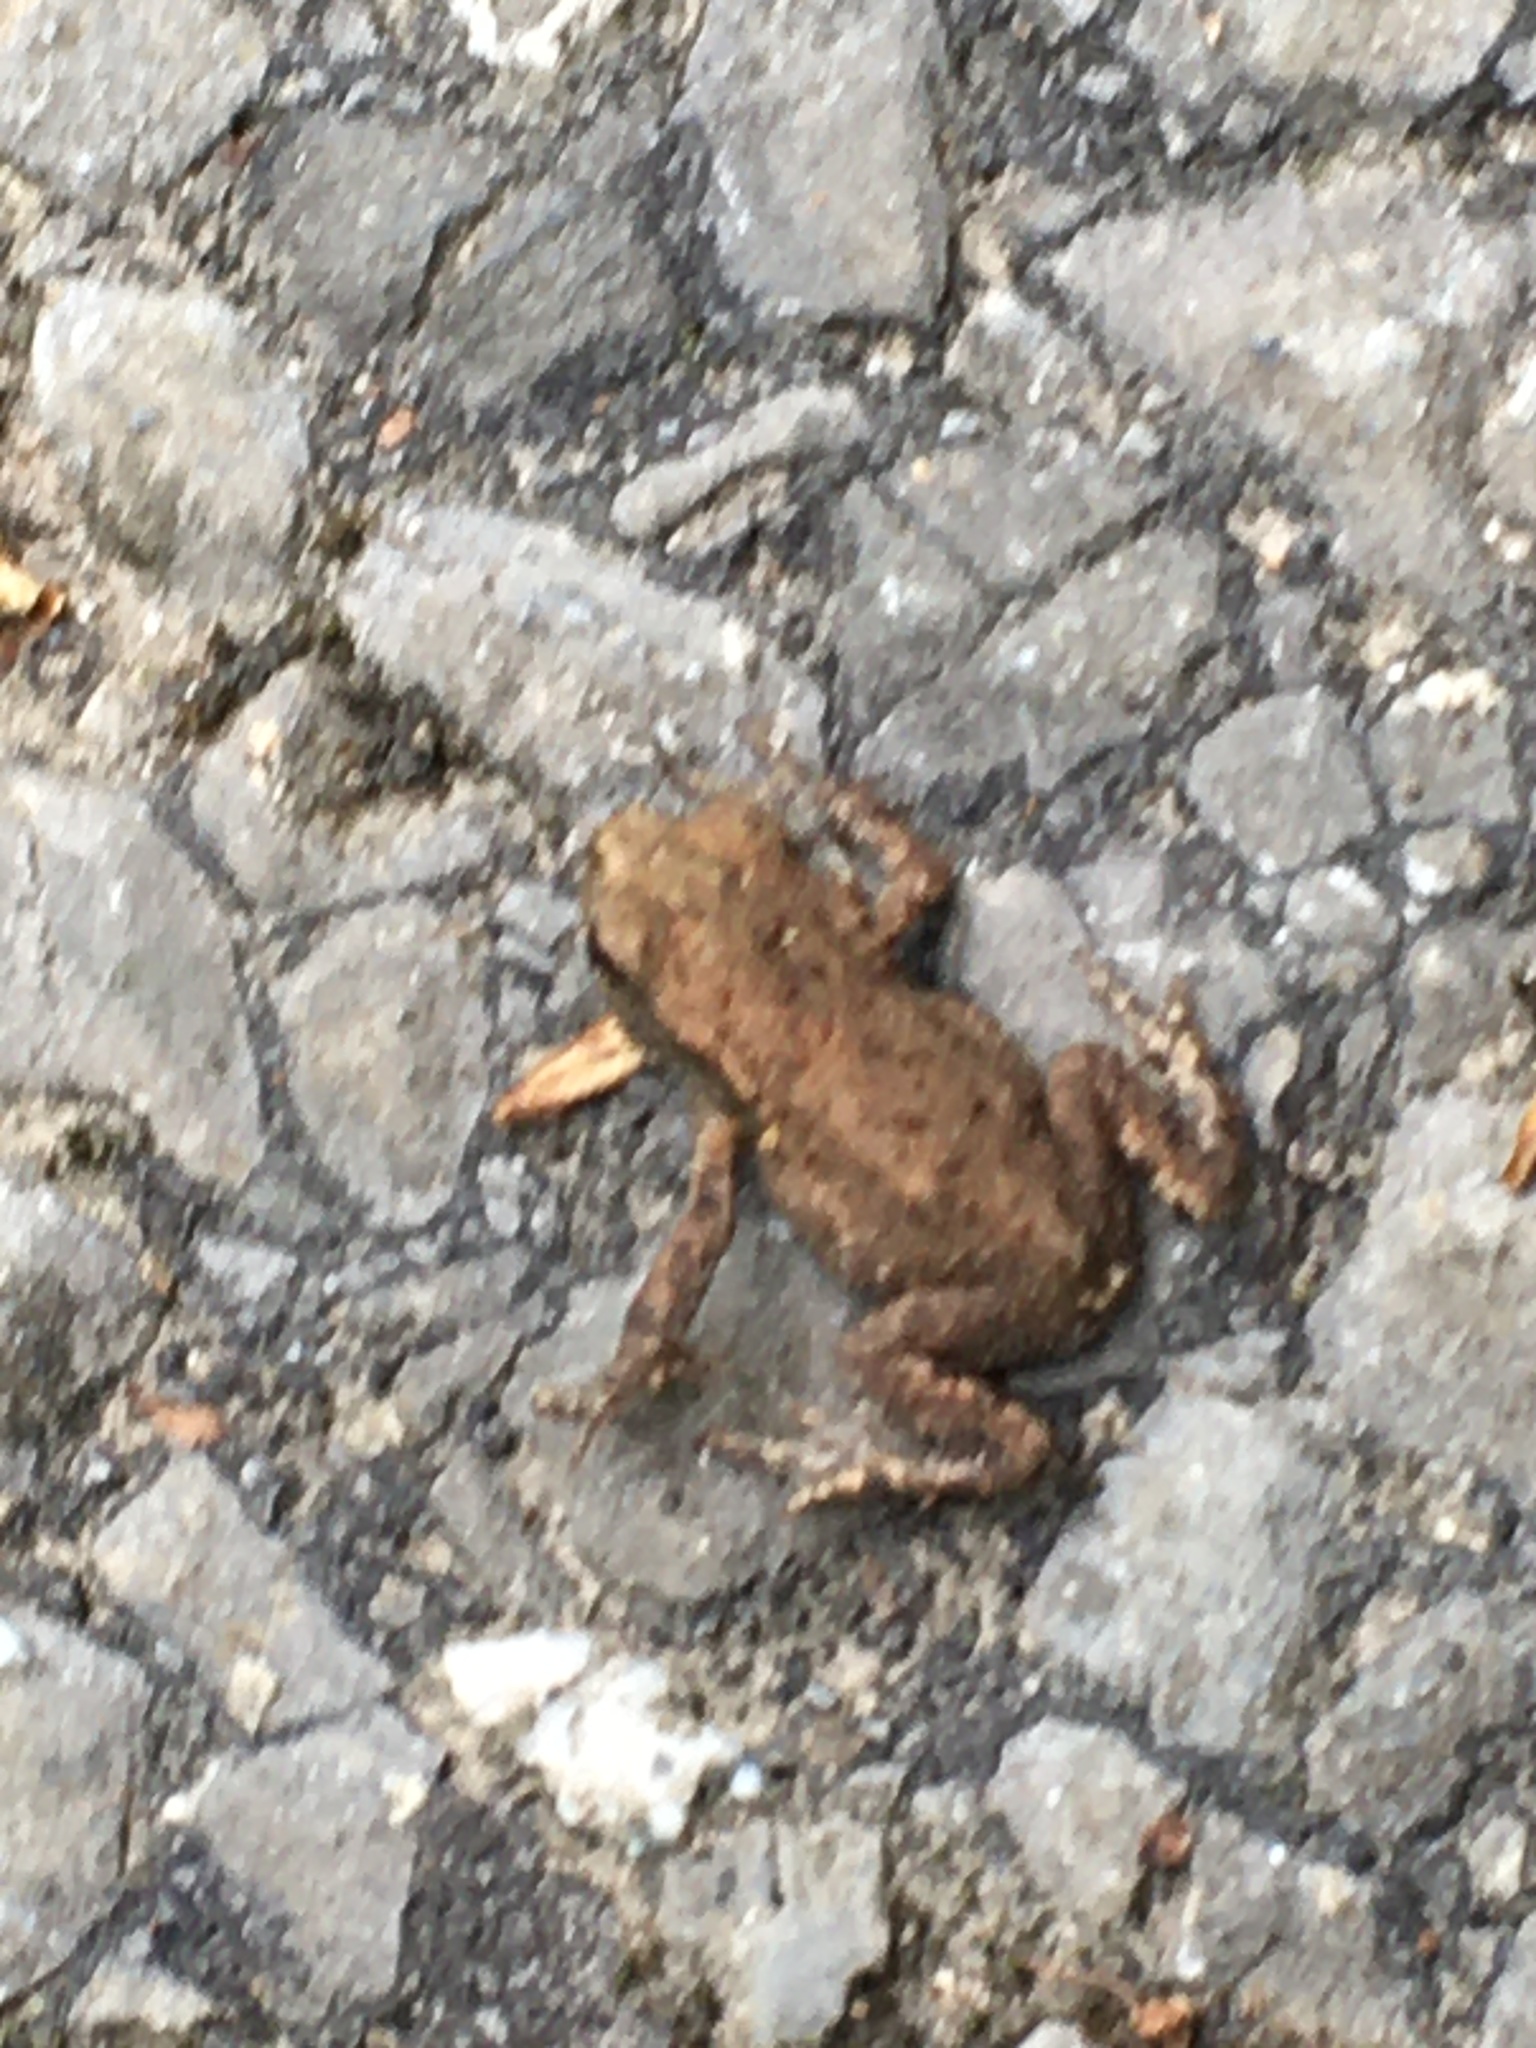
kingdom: Animalia
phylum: Chordata
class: Amphibia
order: Anura
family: Bufonidae
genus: Bufo
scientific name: Bufo bufo
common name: Common toad
